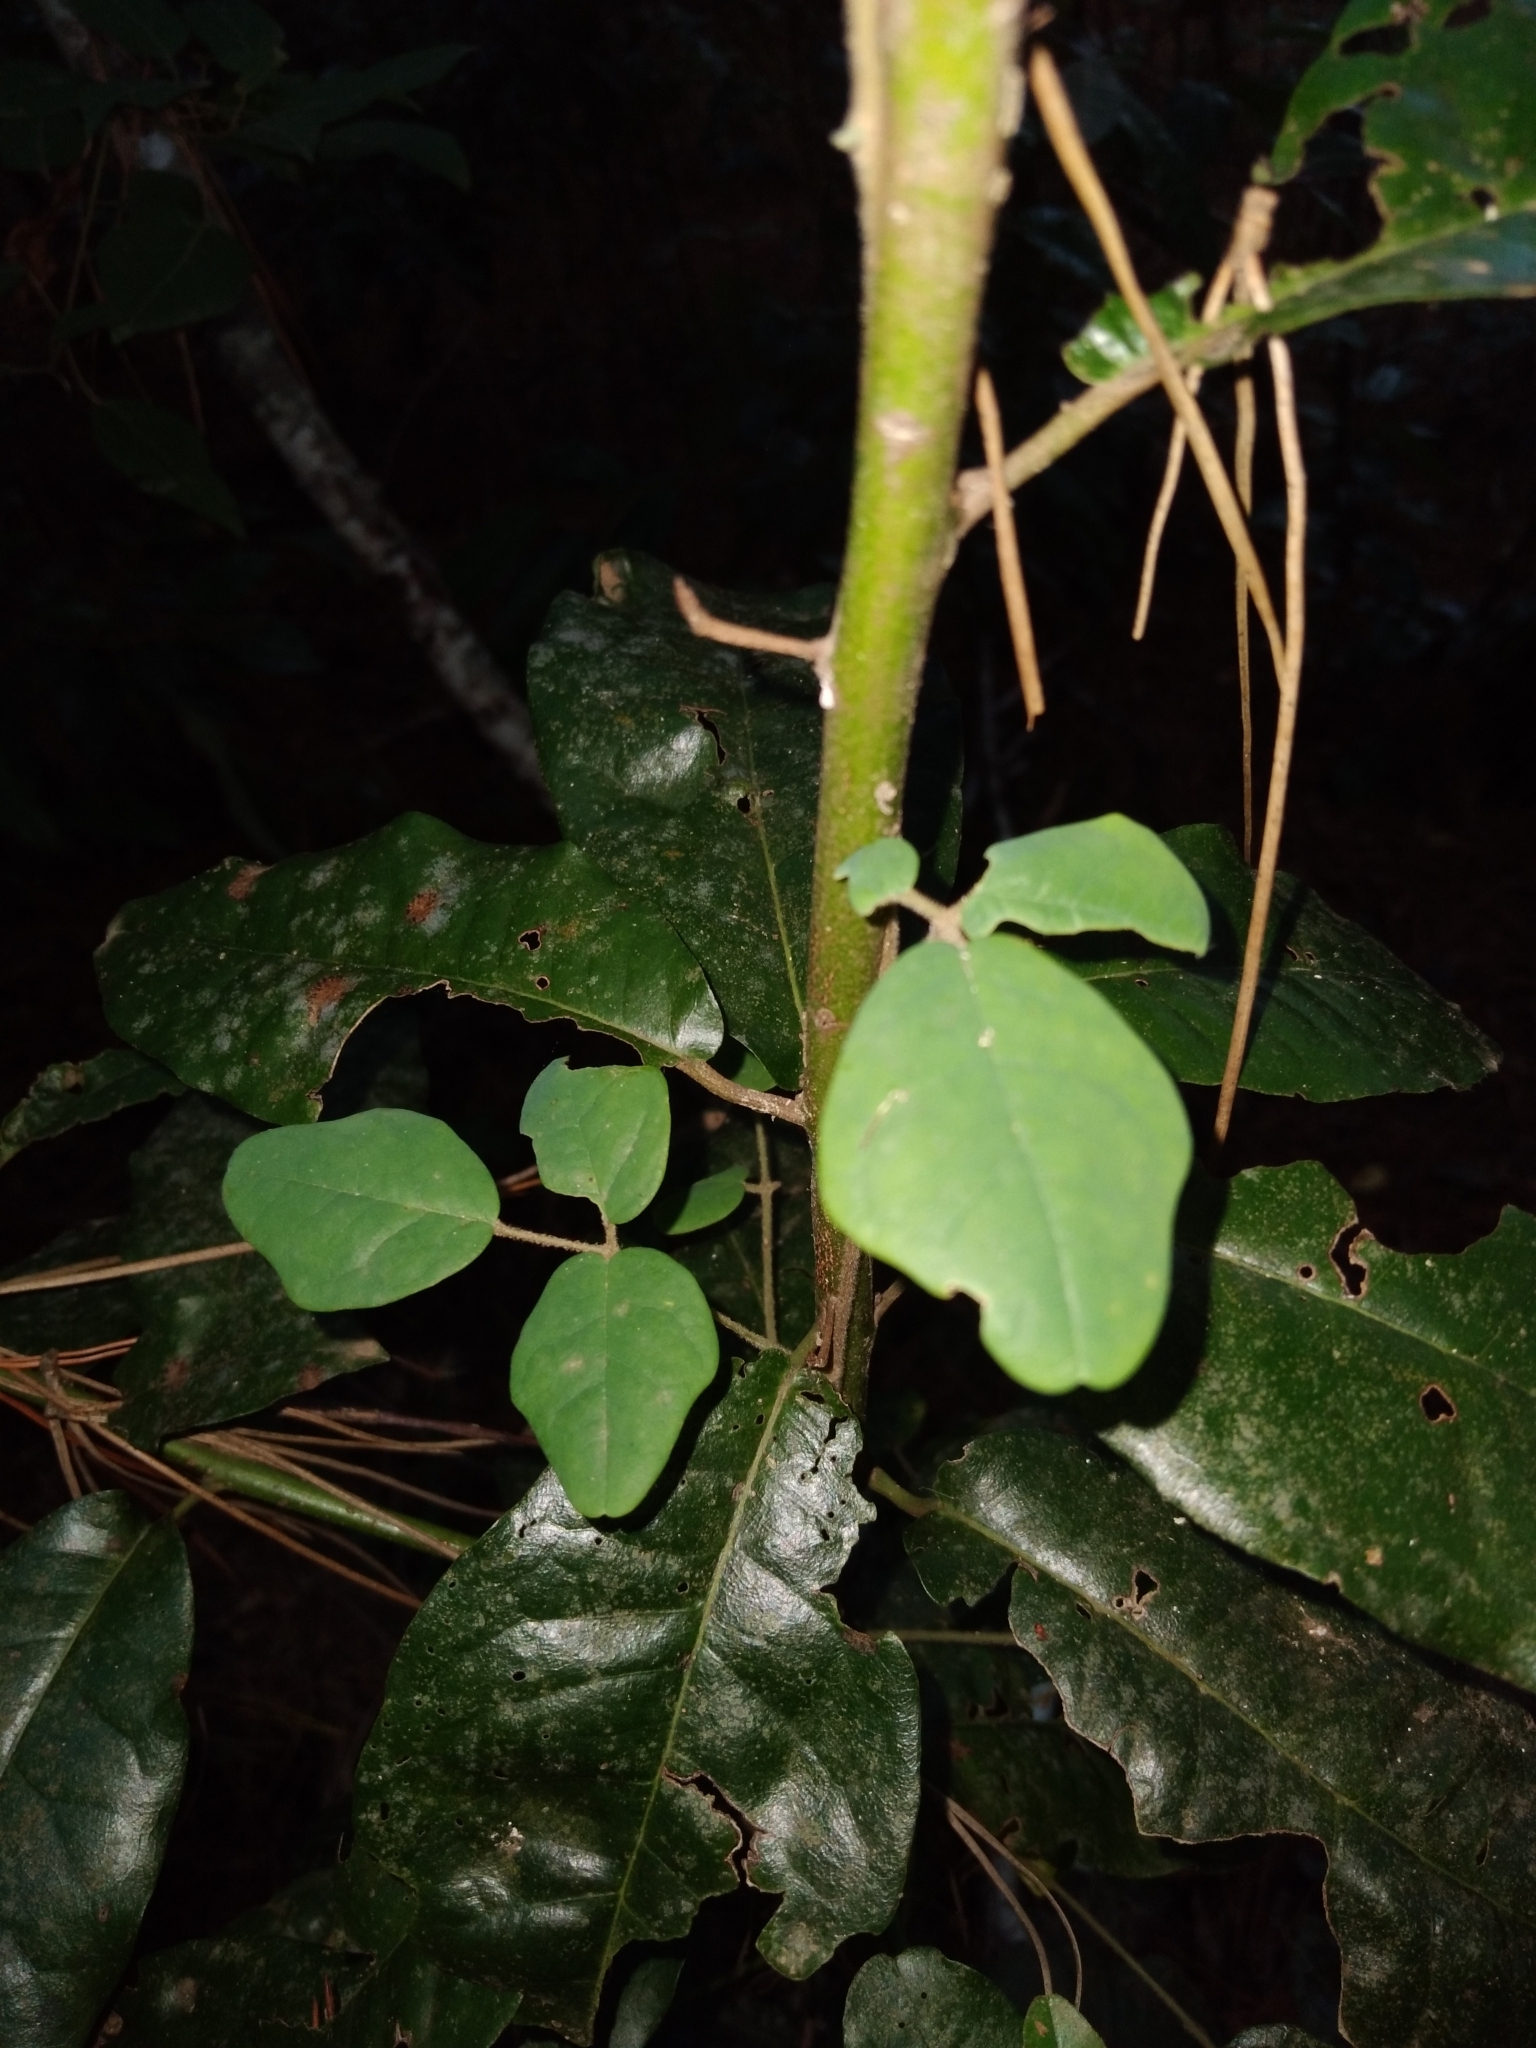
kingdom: Plantae
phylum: Tracheophyta
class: Magnoliopsida
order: Ranunculales
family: Lardizabalaceae
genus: Boquila
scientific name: Boquila trifoliolata
